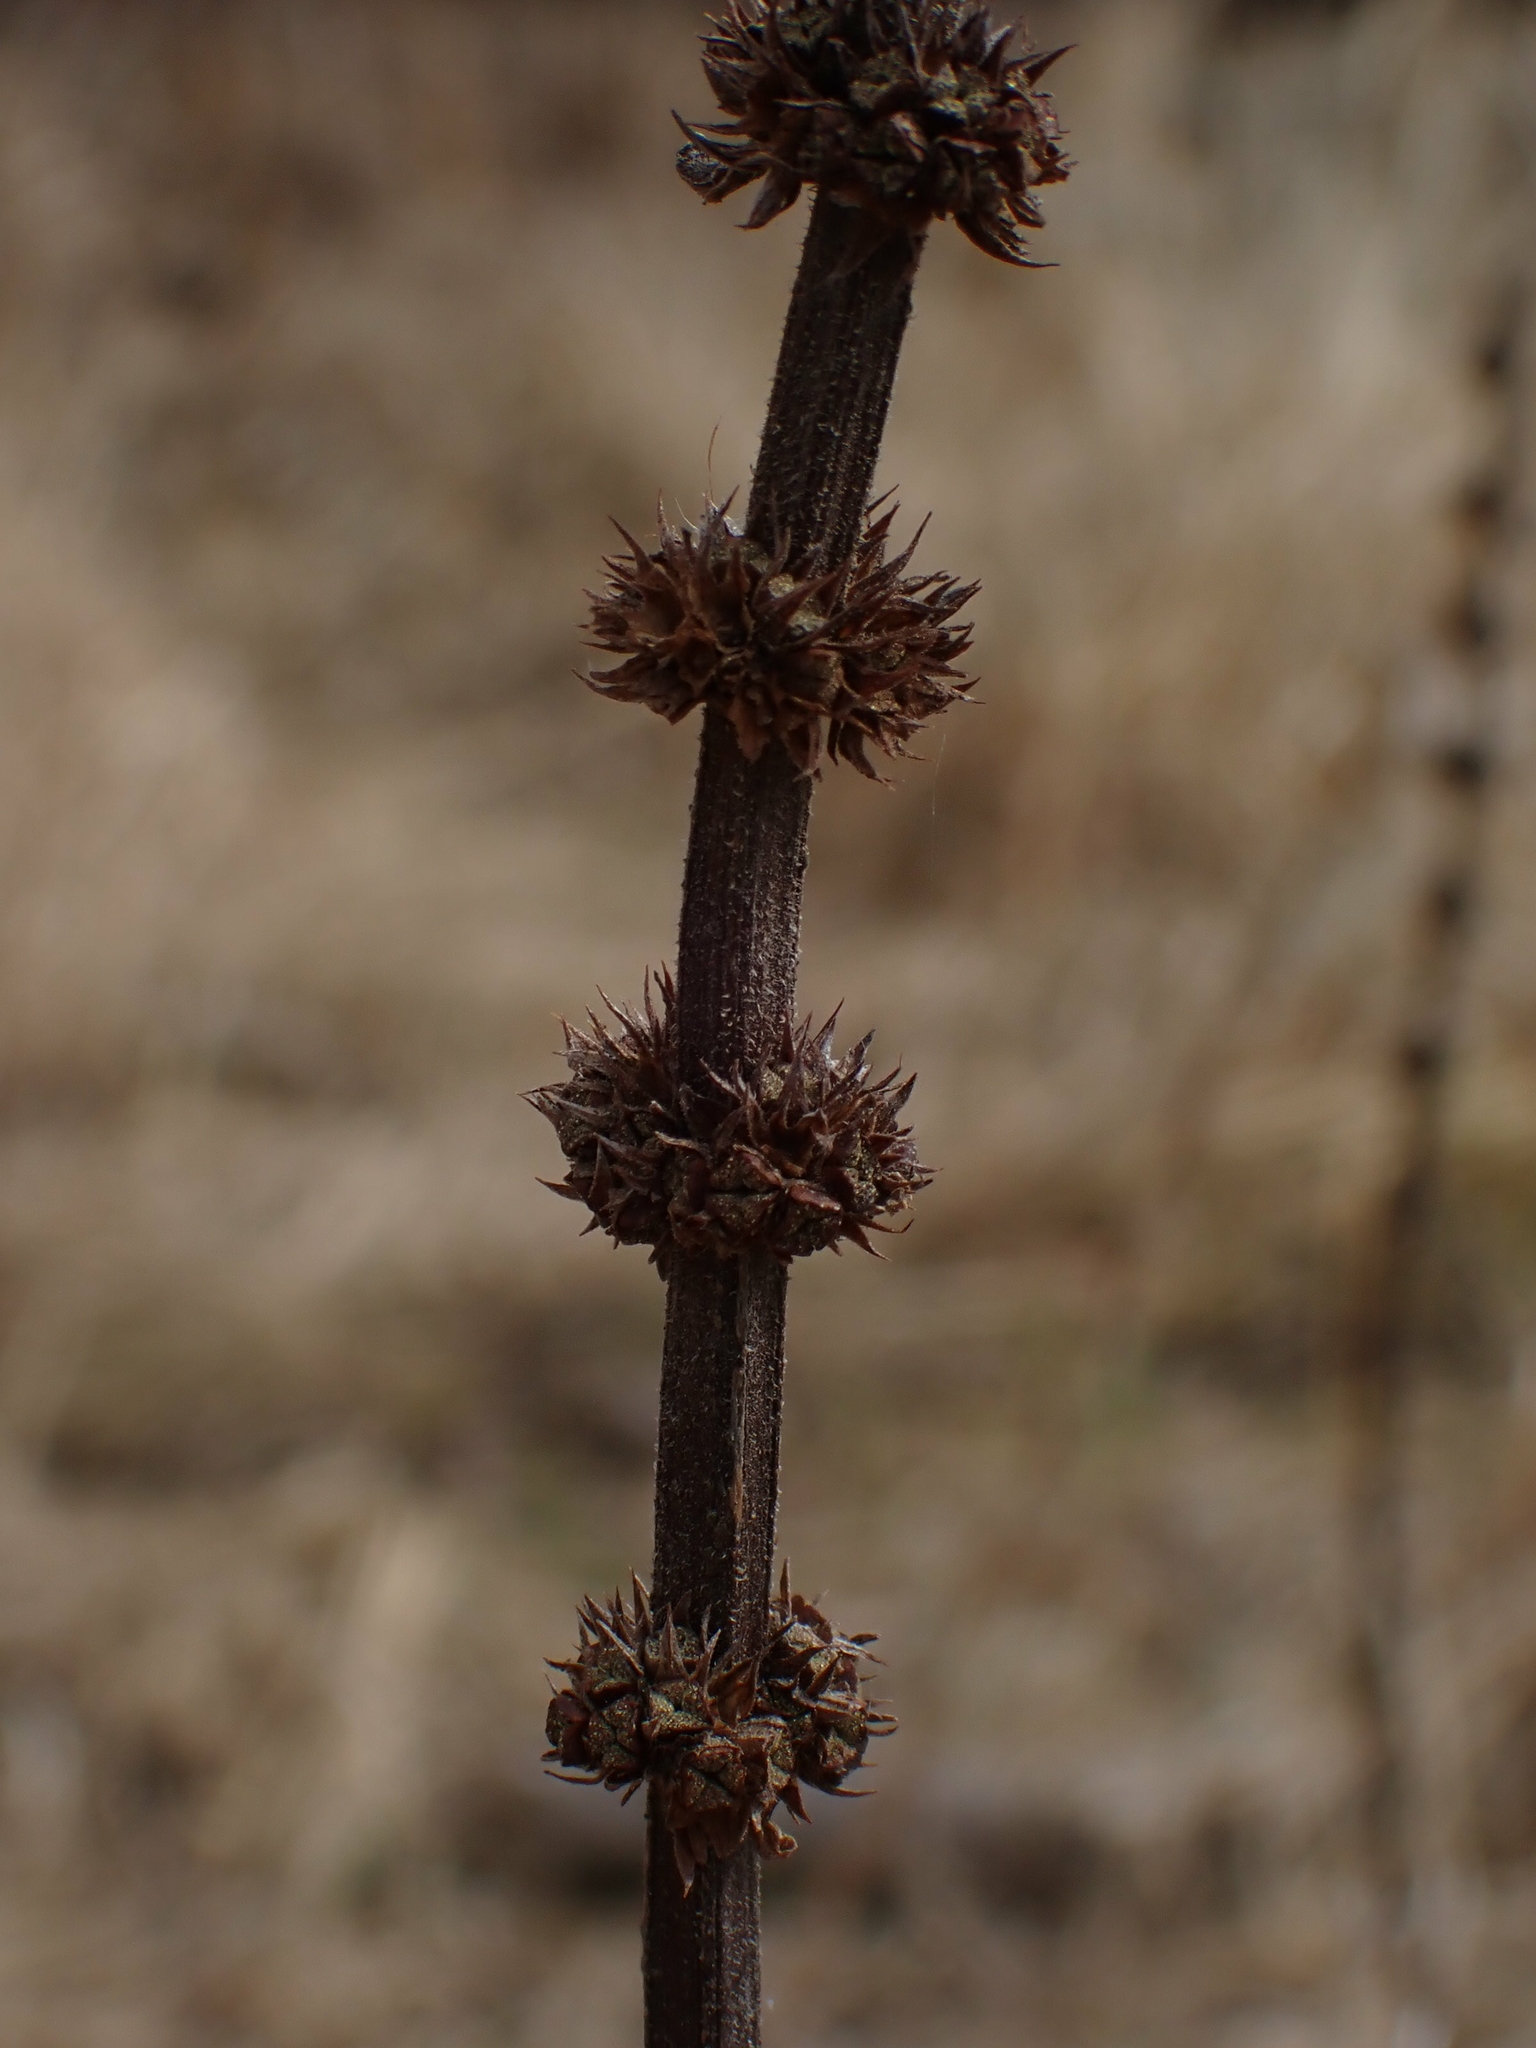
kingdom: Plantae
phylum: Tracheophyta
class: Magnoliopsida
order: Lamiales
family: Lamiaceae
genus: Lycopus
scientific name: Lycopus uniflorus
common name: Northern bugleweed
